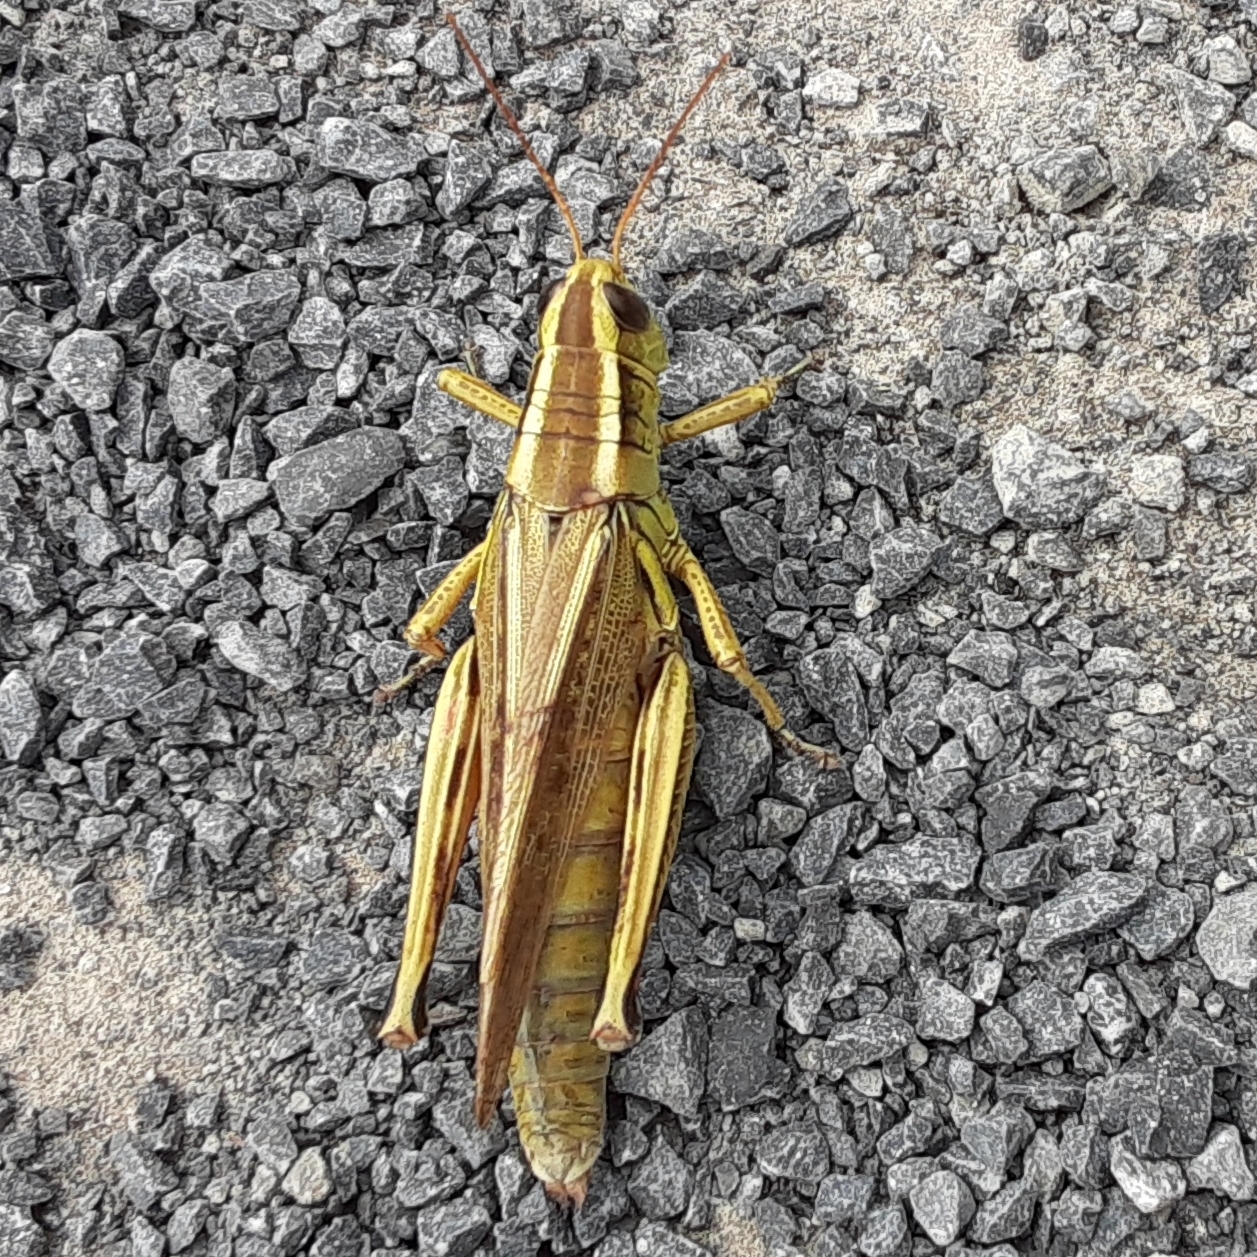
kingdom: Animalia
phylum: Arthropoda
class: Insecta
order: Orthoptera
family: Acrididae
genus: Melanoplus
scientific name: Melanoplus bivittatus
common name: Two-striped grasshopper
